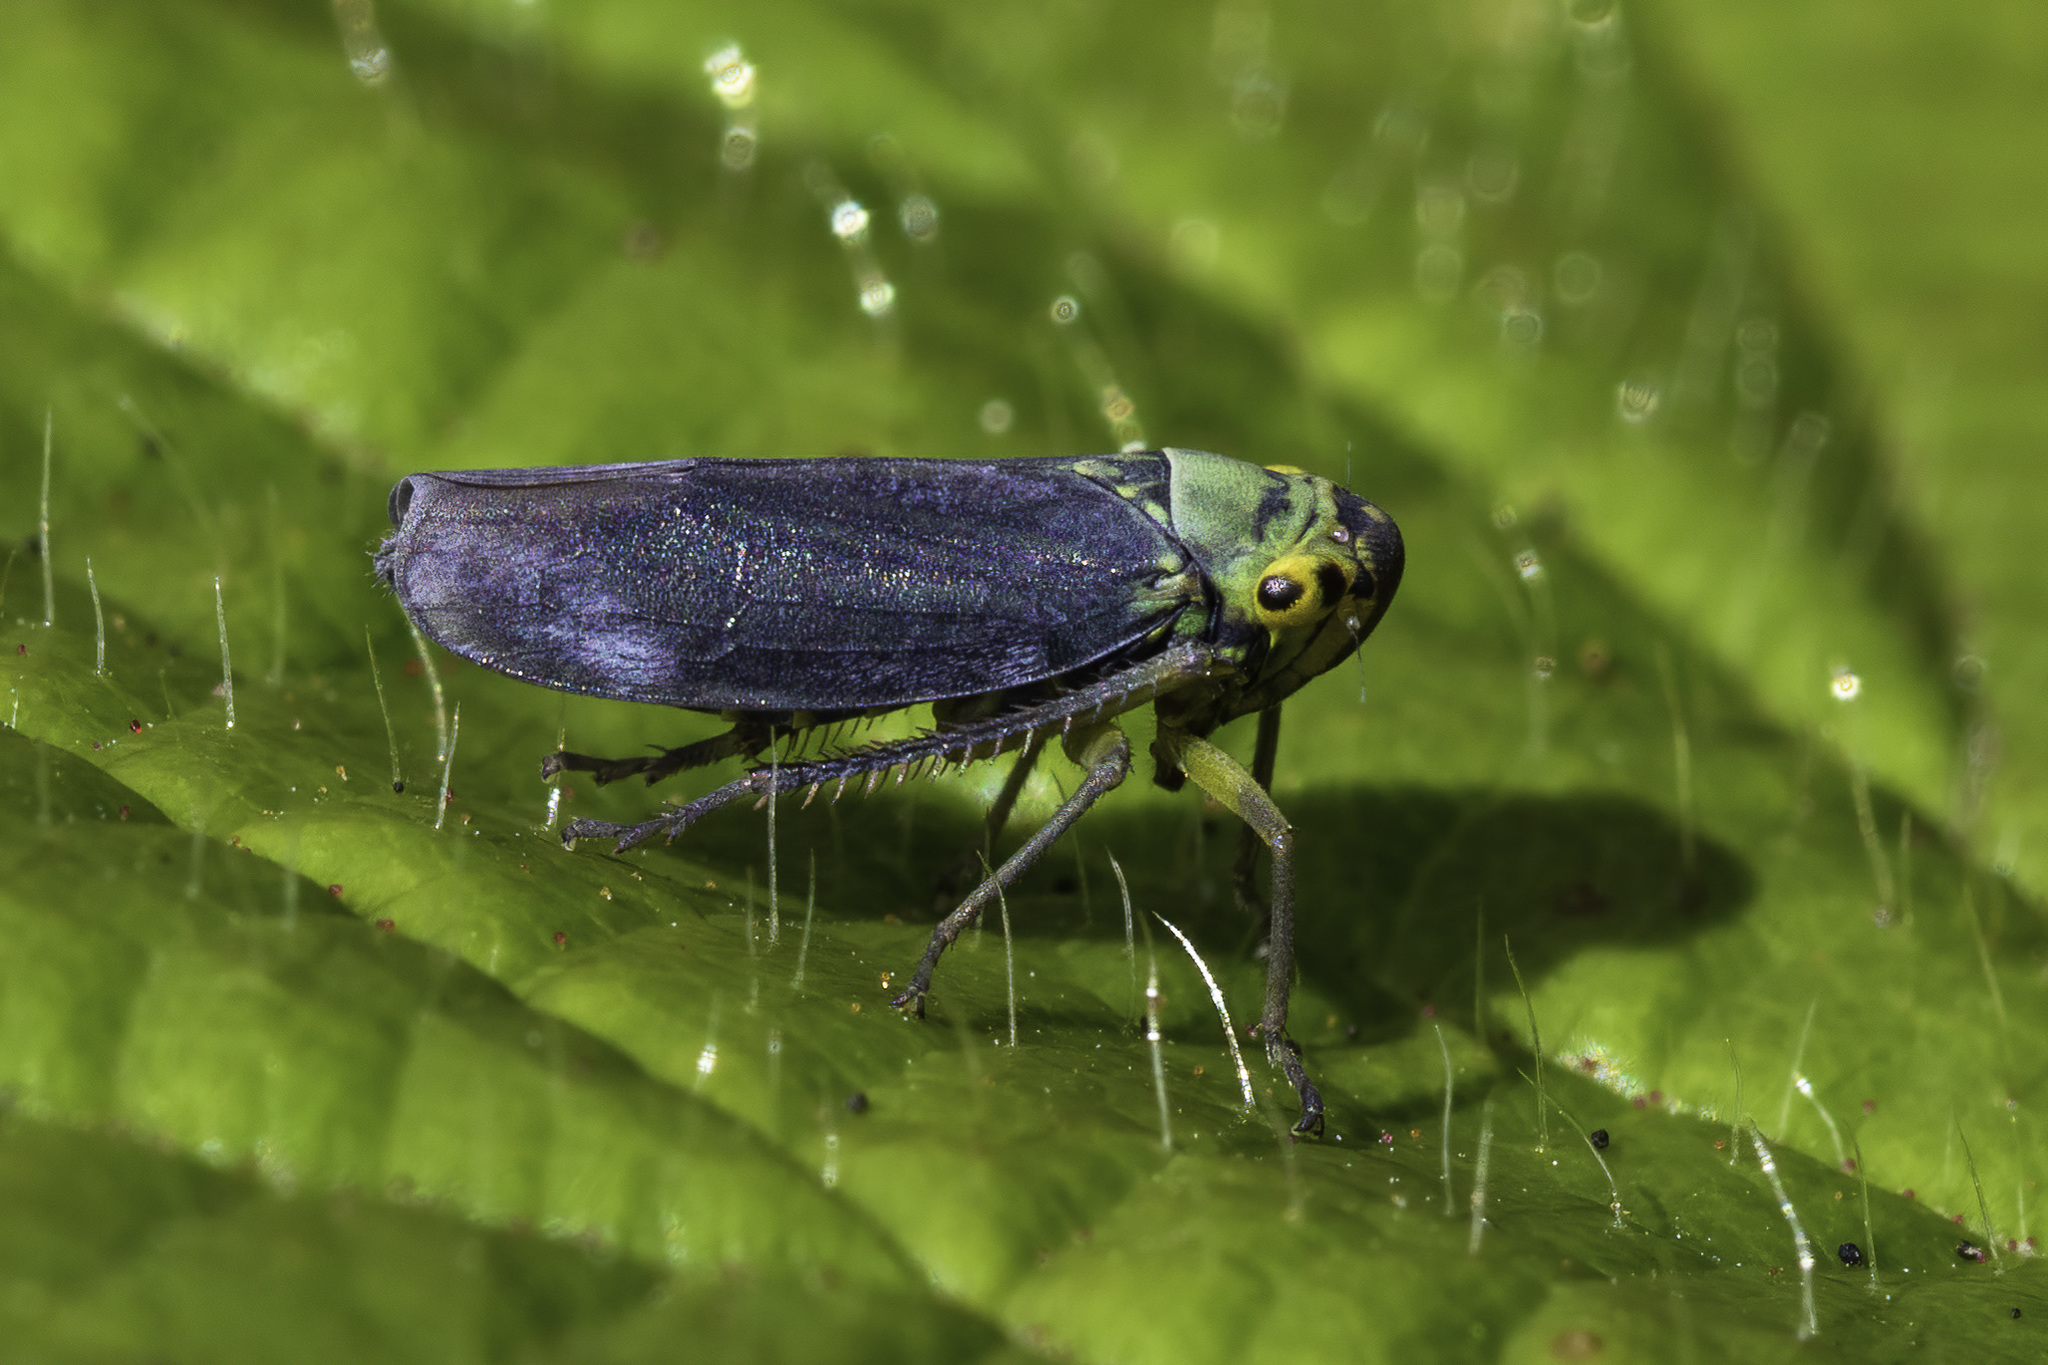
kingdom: Animalia
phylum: Arthropoda
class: Insecta
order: Hemiptera
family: Cicadellidae
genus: Cicadella
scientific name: Cicadella viridis
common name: Leafhopper
